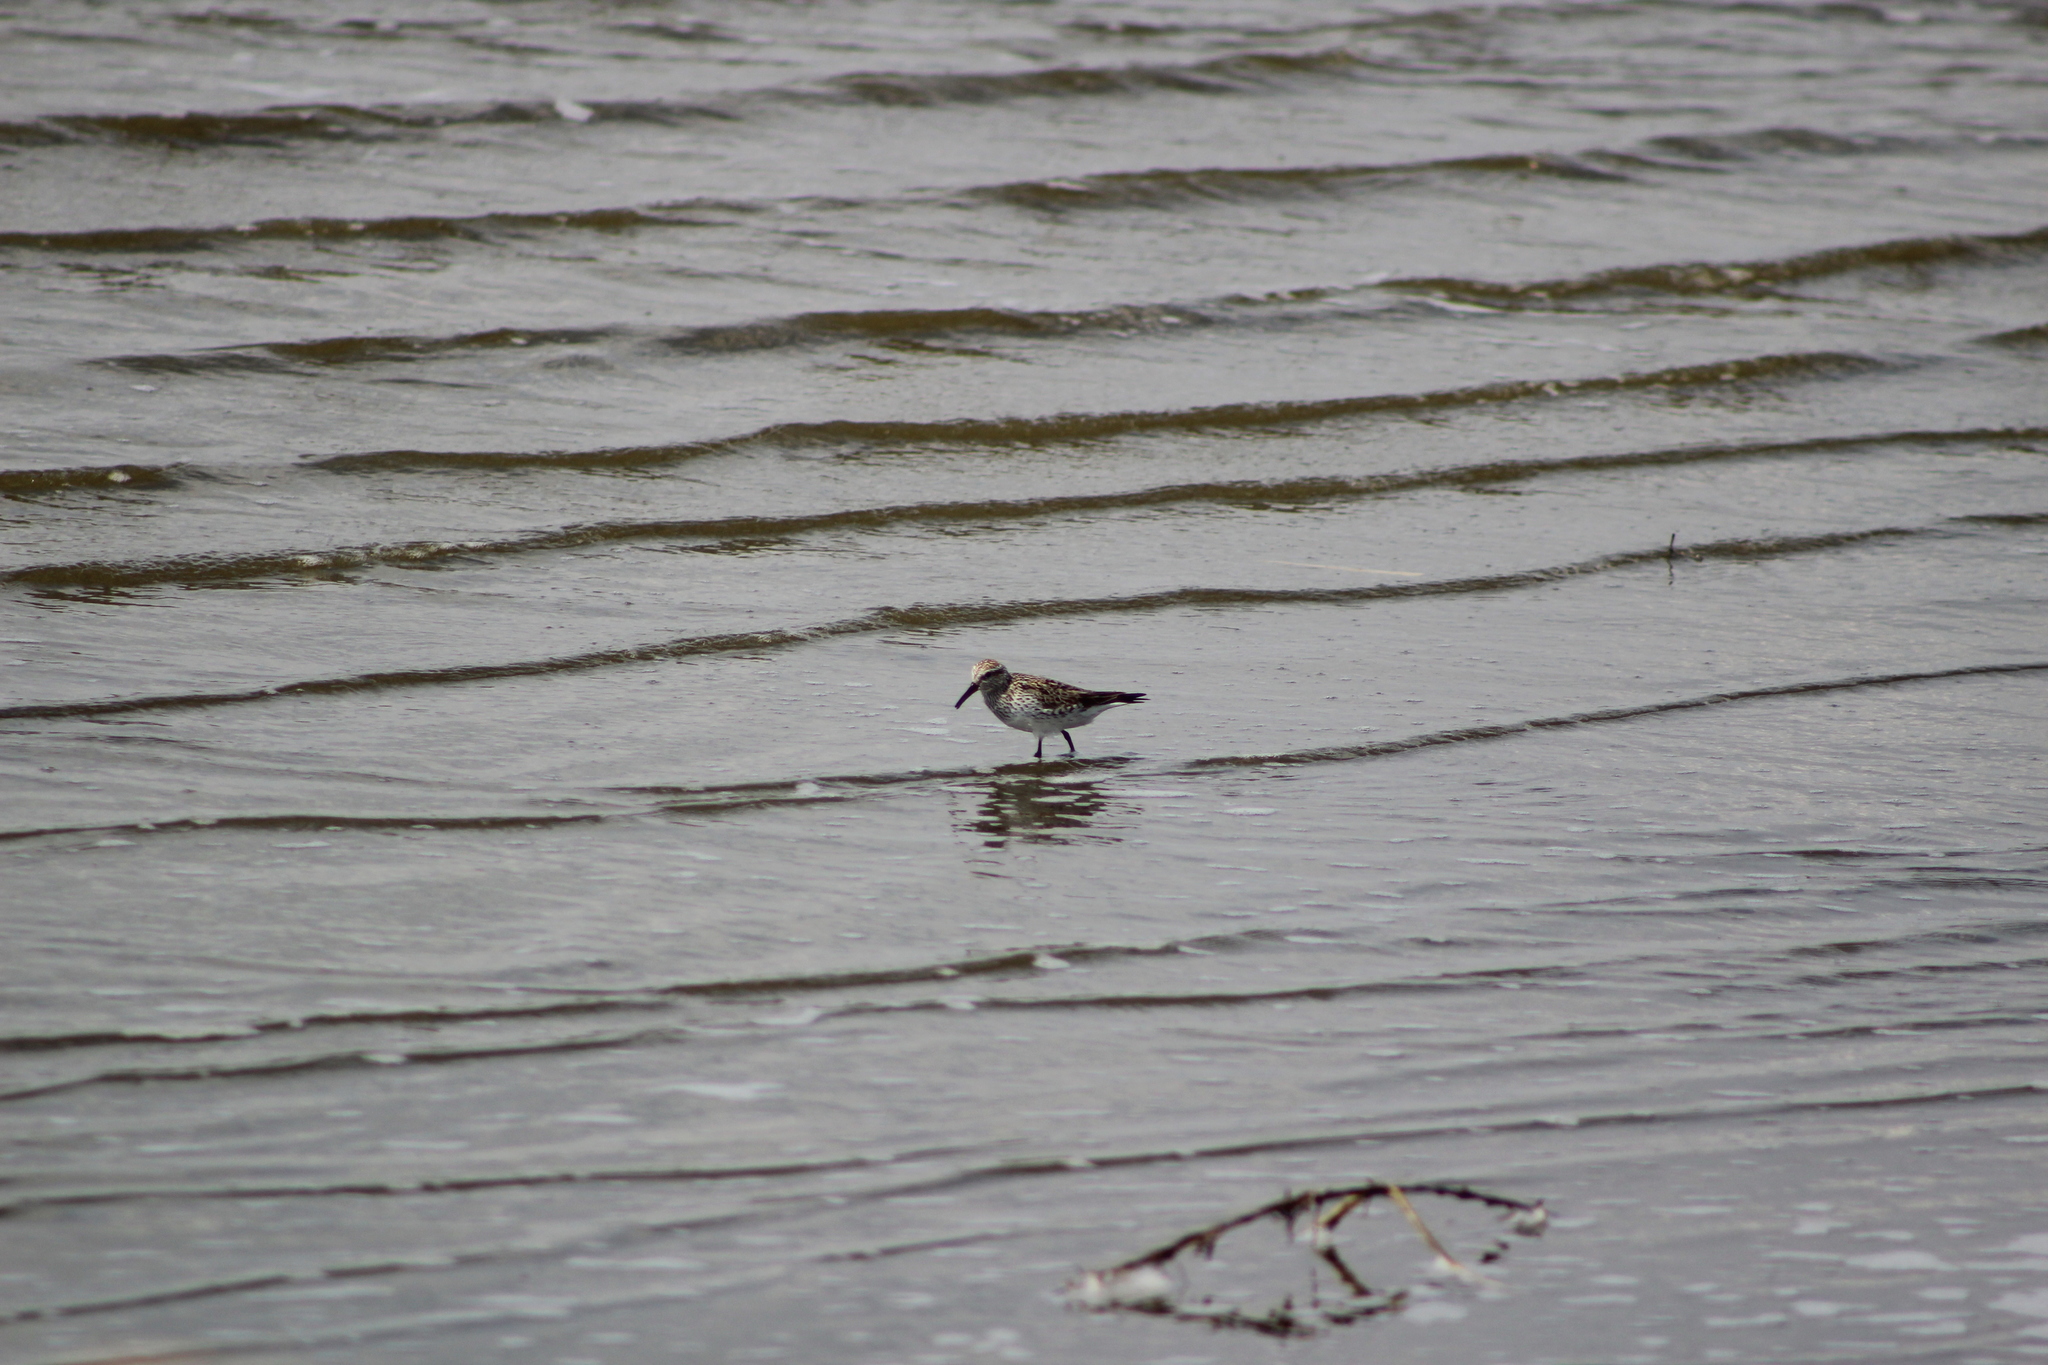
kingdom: Animalia
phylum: Chordata
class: Aves
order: Charadriiformes
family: Scolopacidae
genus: Calidris
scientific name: Calidris fuscicollis
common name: White-rumped sandpiper
